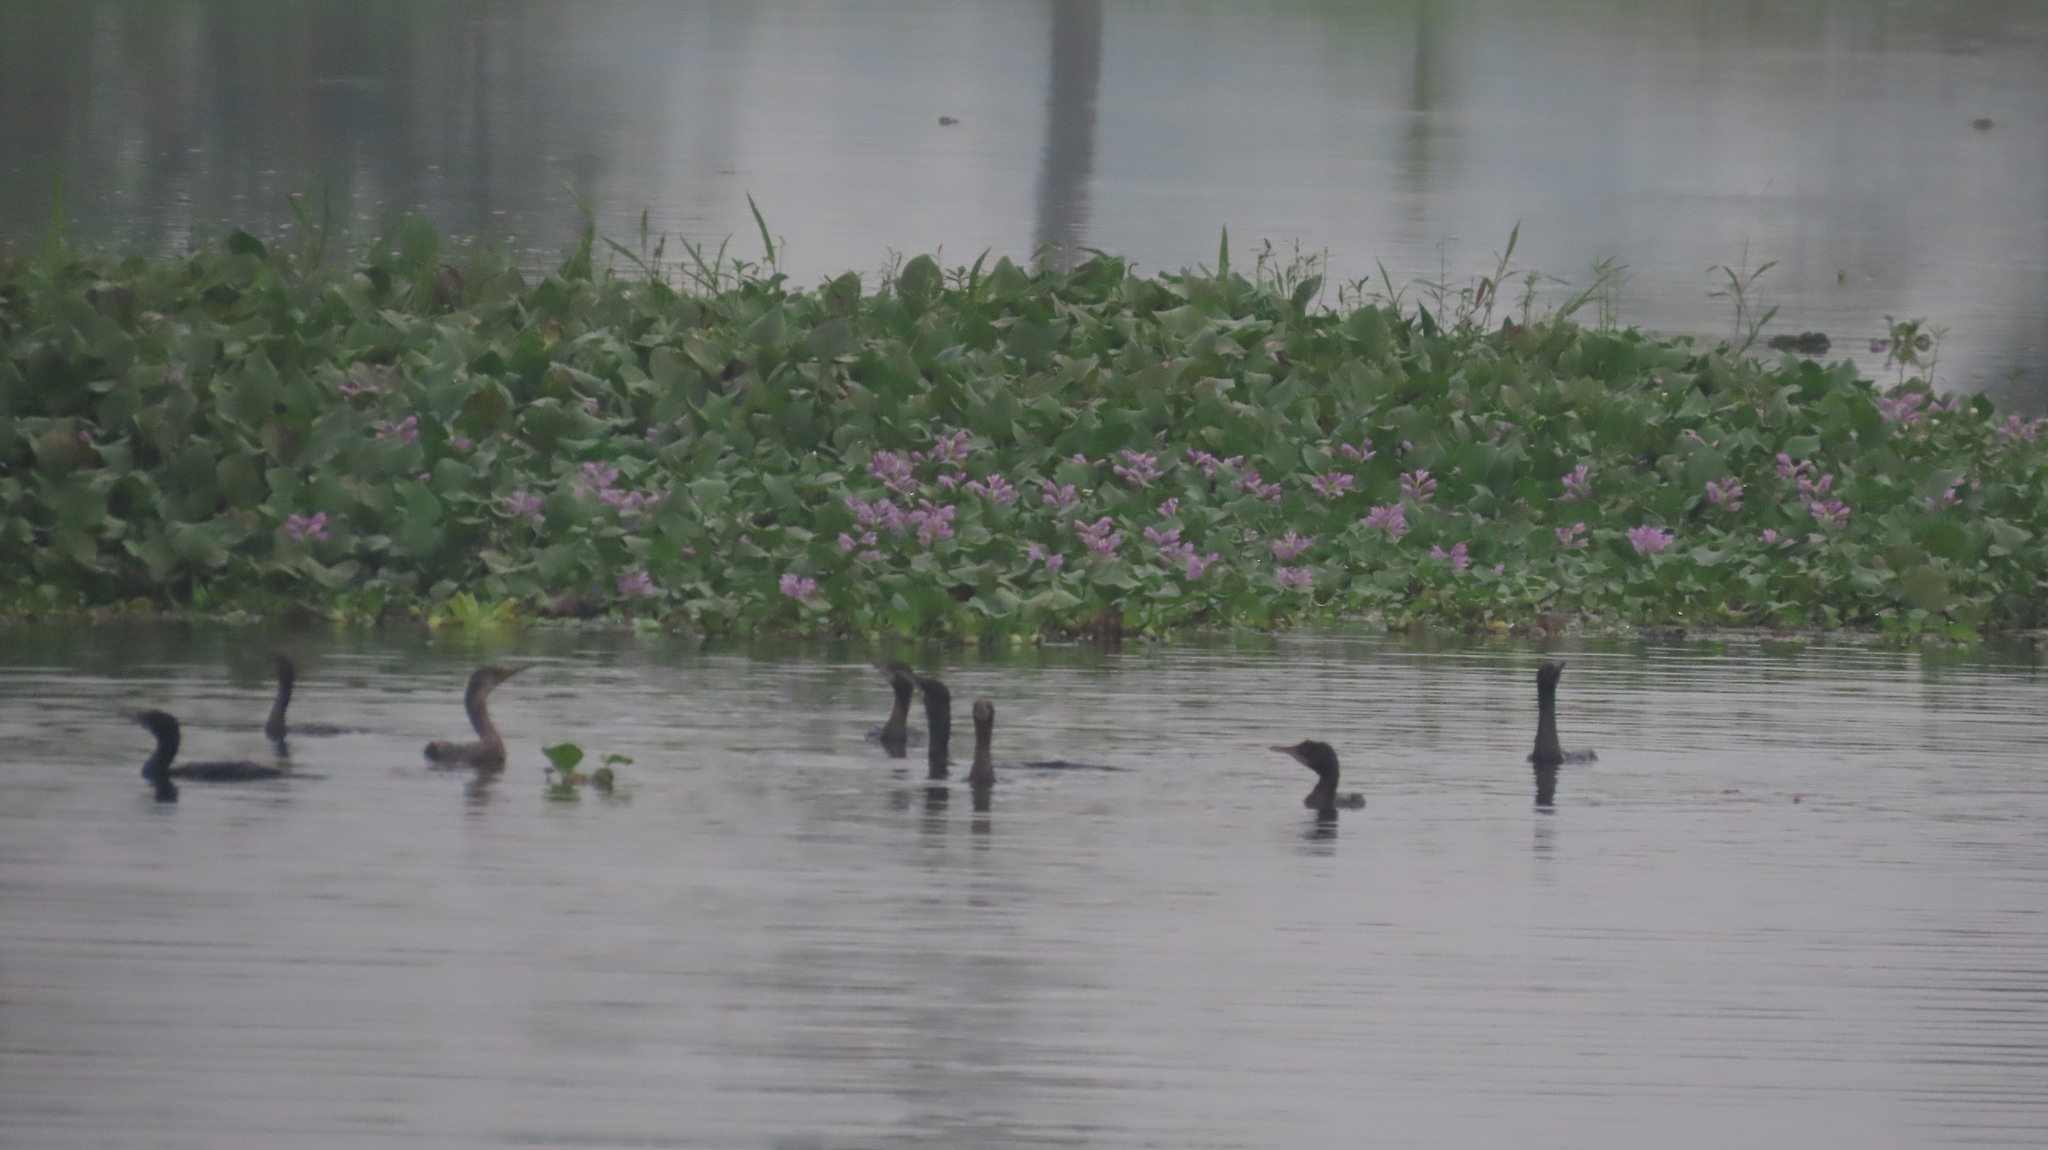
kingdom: Animalia
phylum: Chordata
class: Aves
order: Suliformes
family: Phalacrocoracidae
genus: Phalacrocorax
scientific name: Phalacrocorax fuscicollis
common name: Indian cormorant
